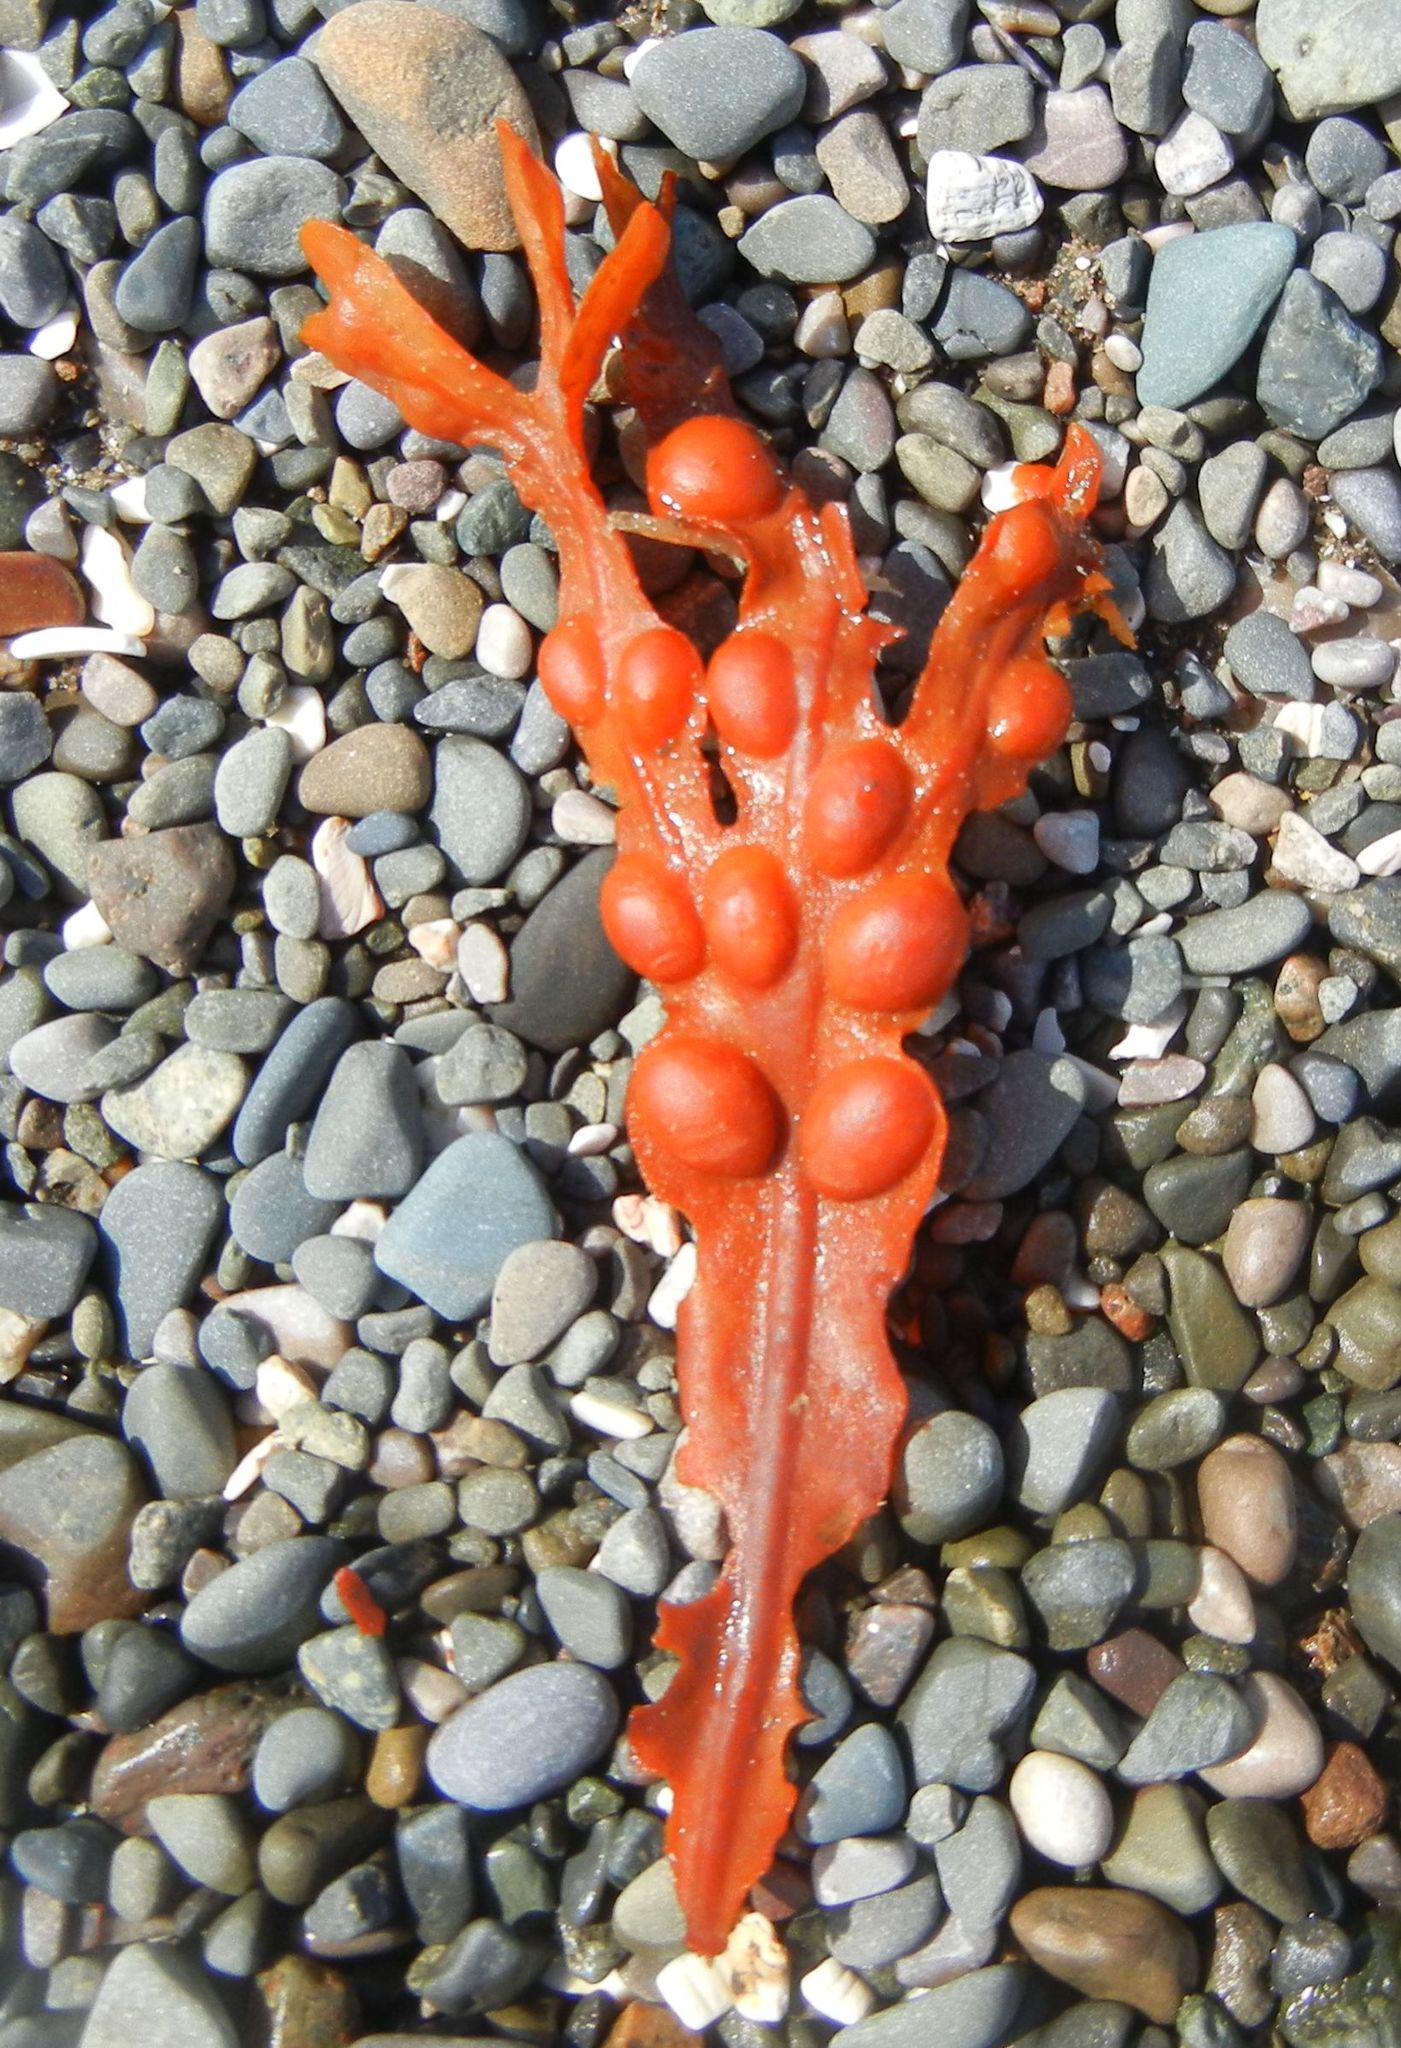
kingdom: Chromista
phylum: Ochrophyta
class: Phaeophyceae
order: Fucales
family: Fucaceae
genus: Fucus
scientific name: Fucus vesiculosus
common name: Bladder wrack
